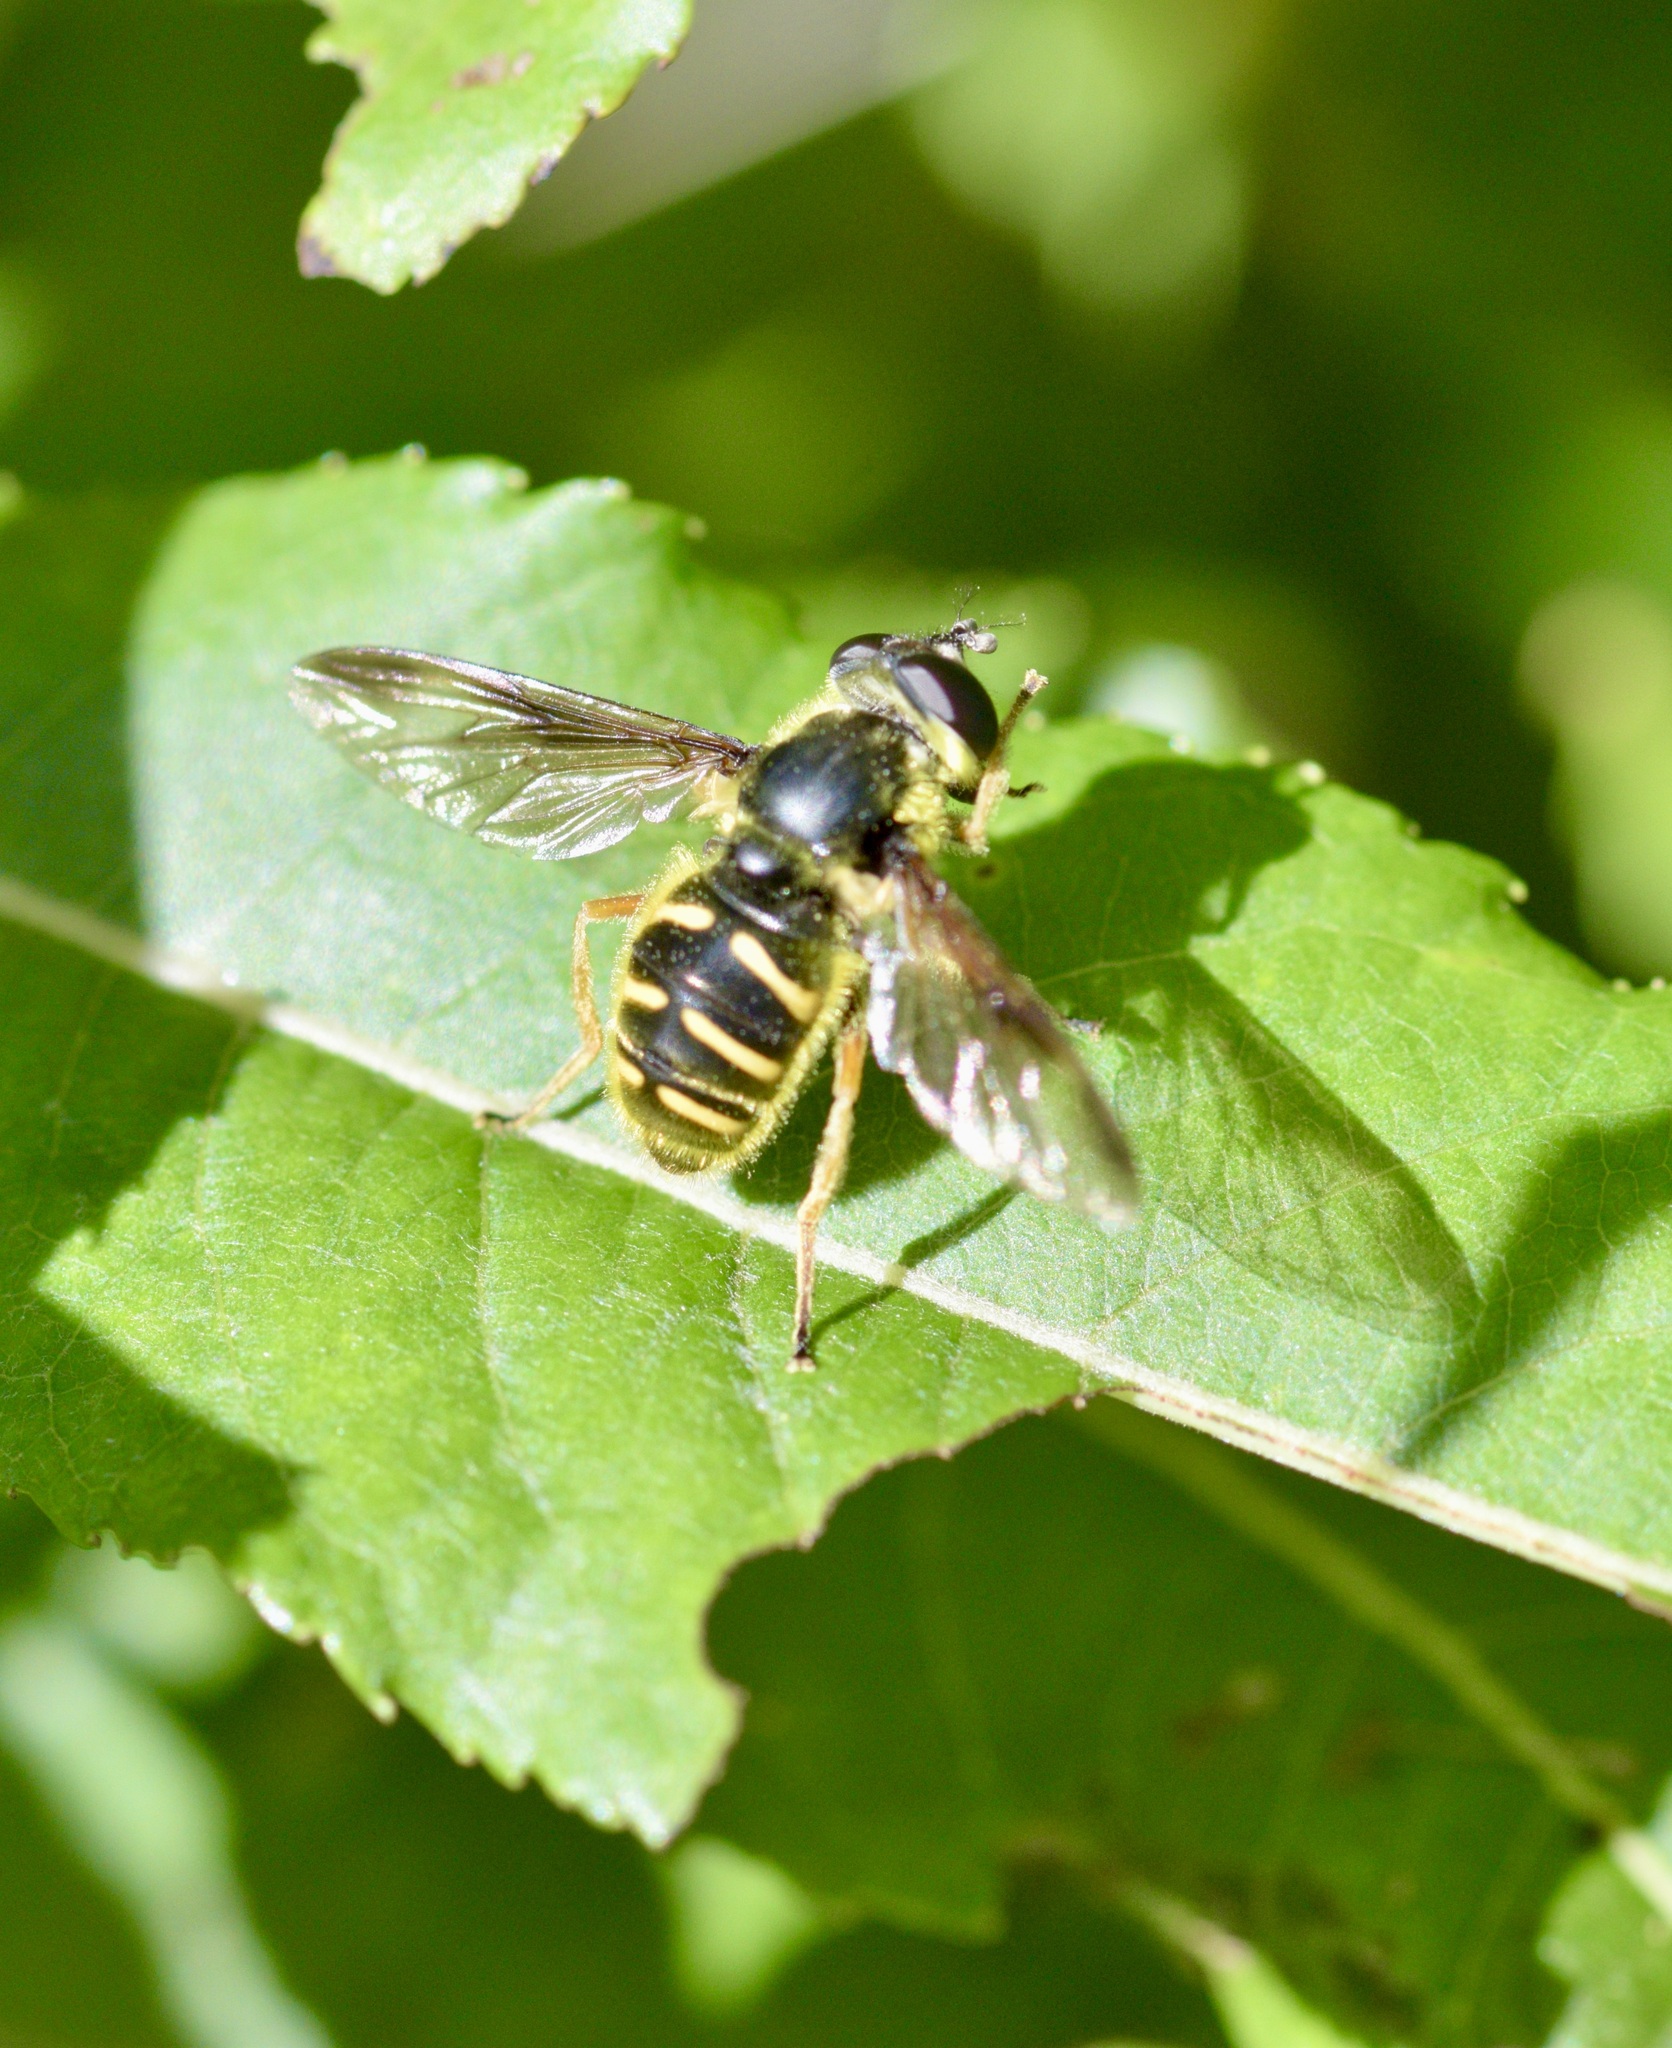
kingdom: Animalia
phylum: Arthropoda
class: Insecta
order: Diptera
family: Syrphidae
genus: Sericomyia
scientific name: Sericomyia chrysotoxoides
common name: Oblique-banded pond fly
